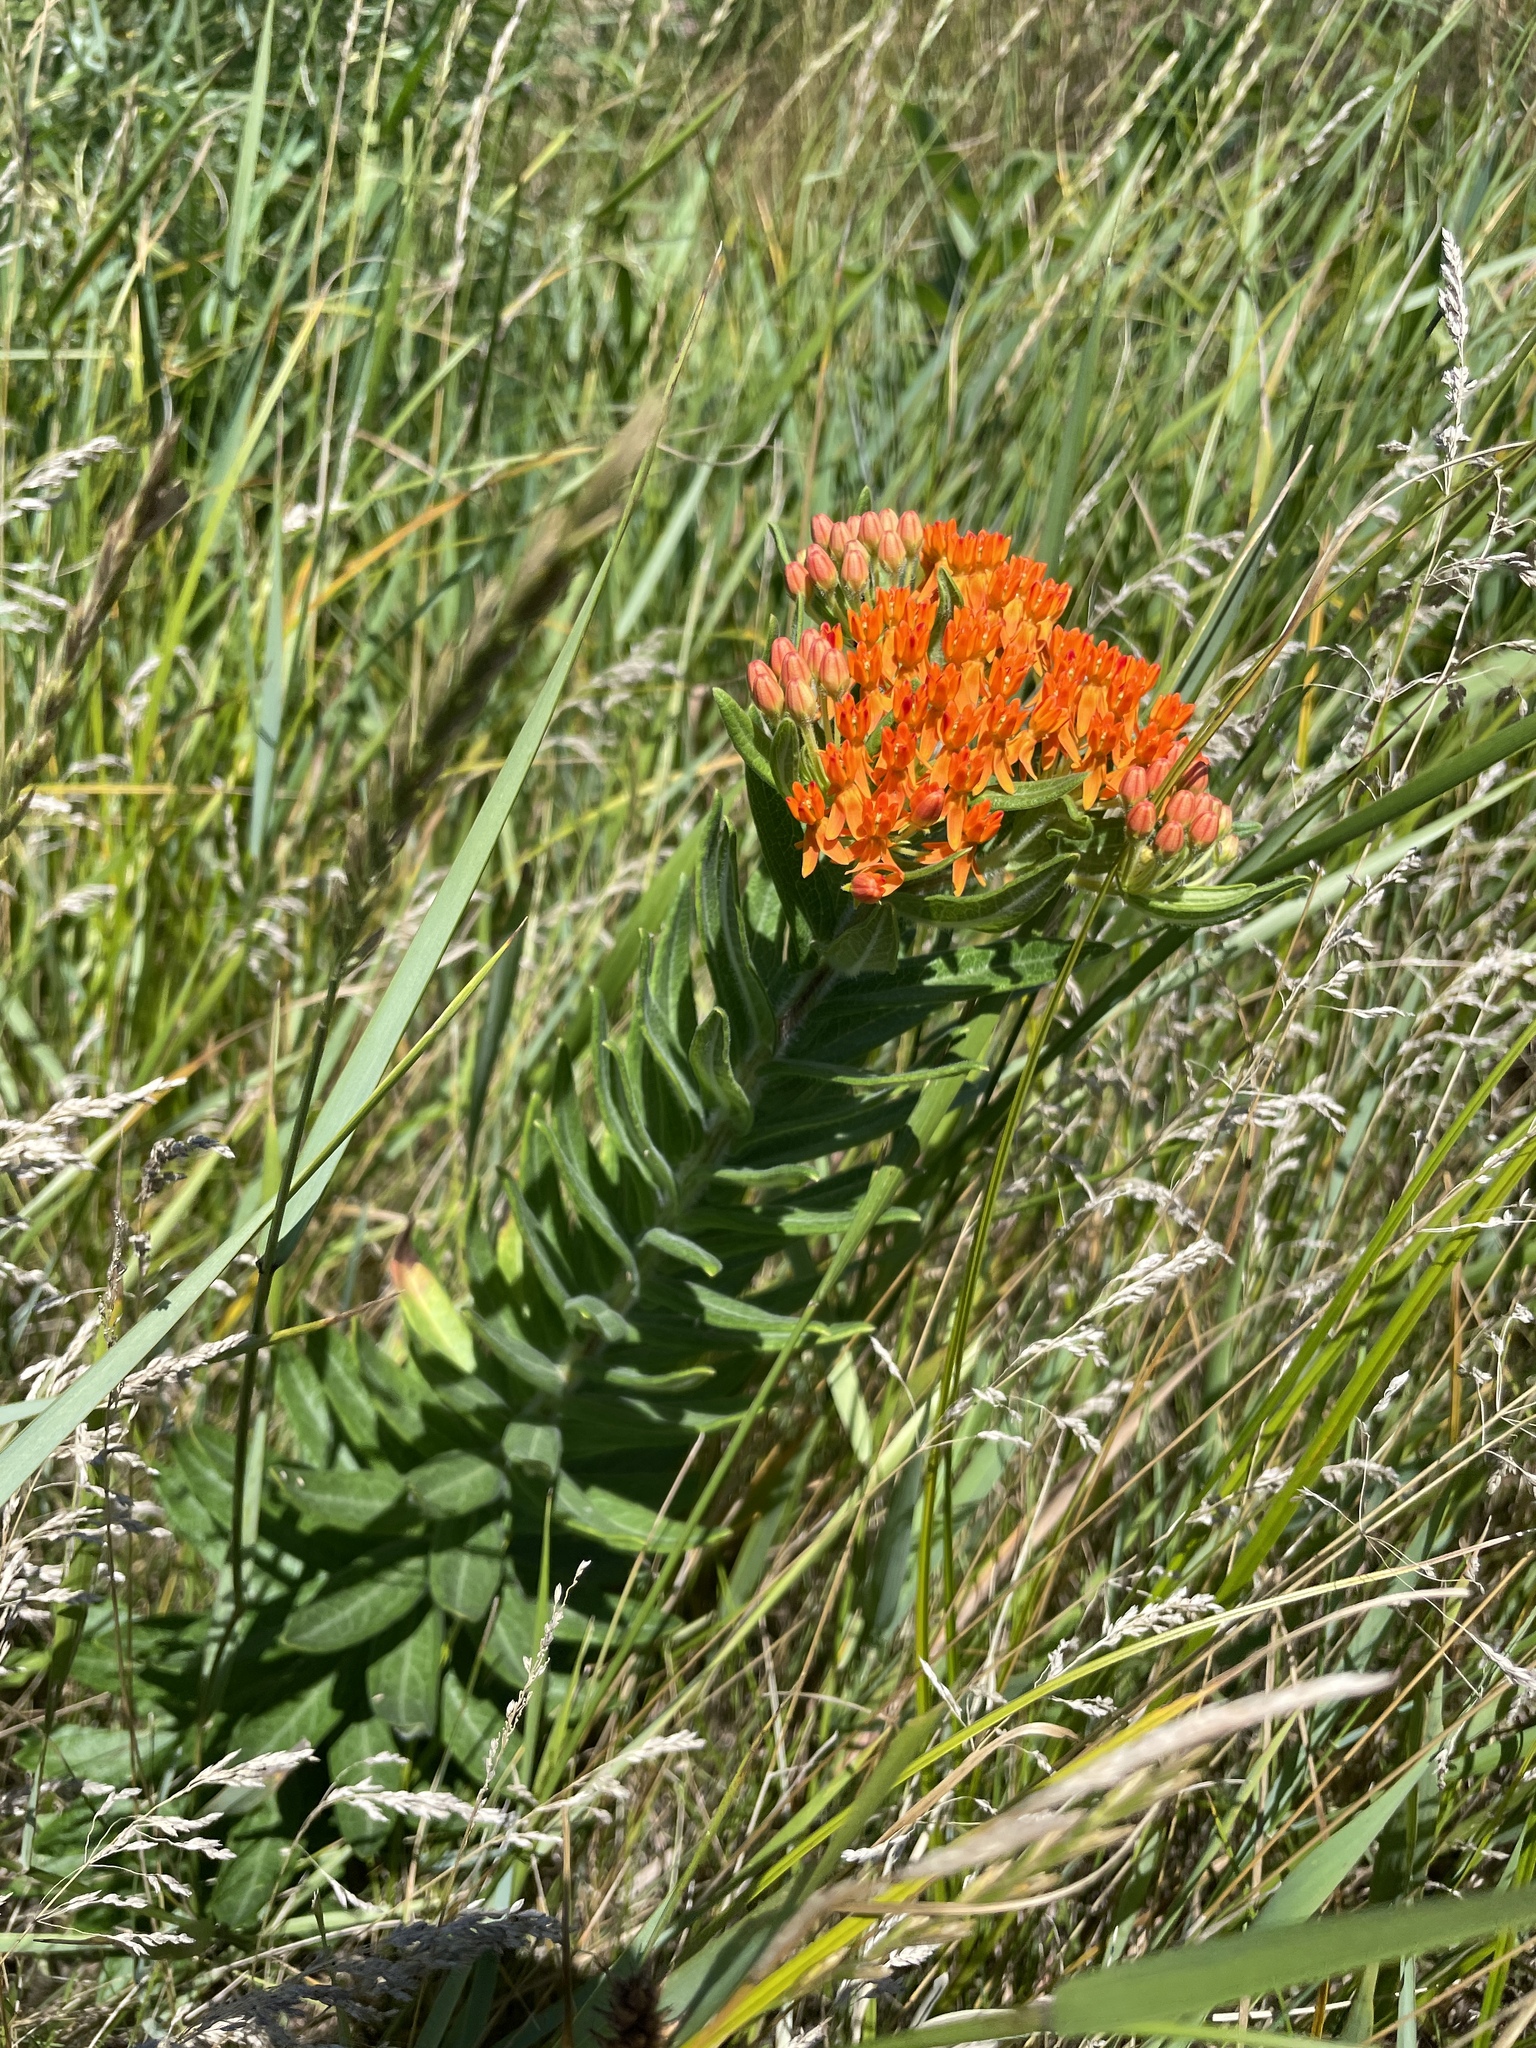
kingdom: Plantae
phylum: Tracheophyta
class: Magnoliopsida
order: Gentianales
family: Apocynaceae
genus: Asclepias
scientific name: Asclepias tuberosa
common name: Butterfly milkweed
